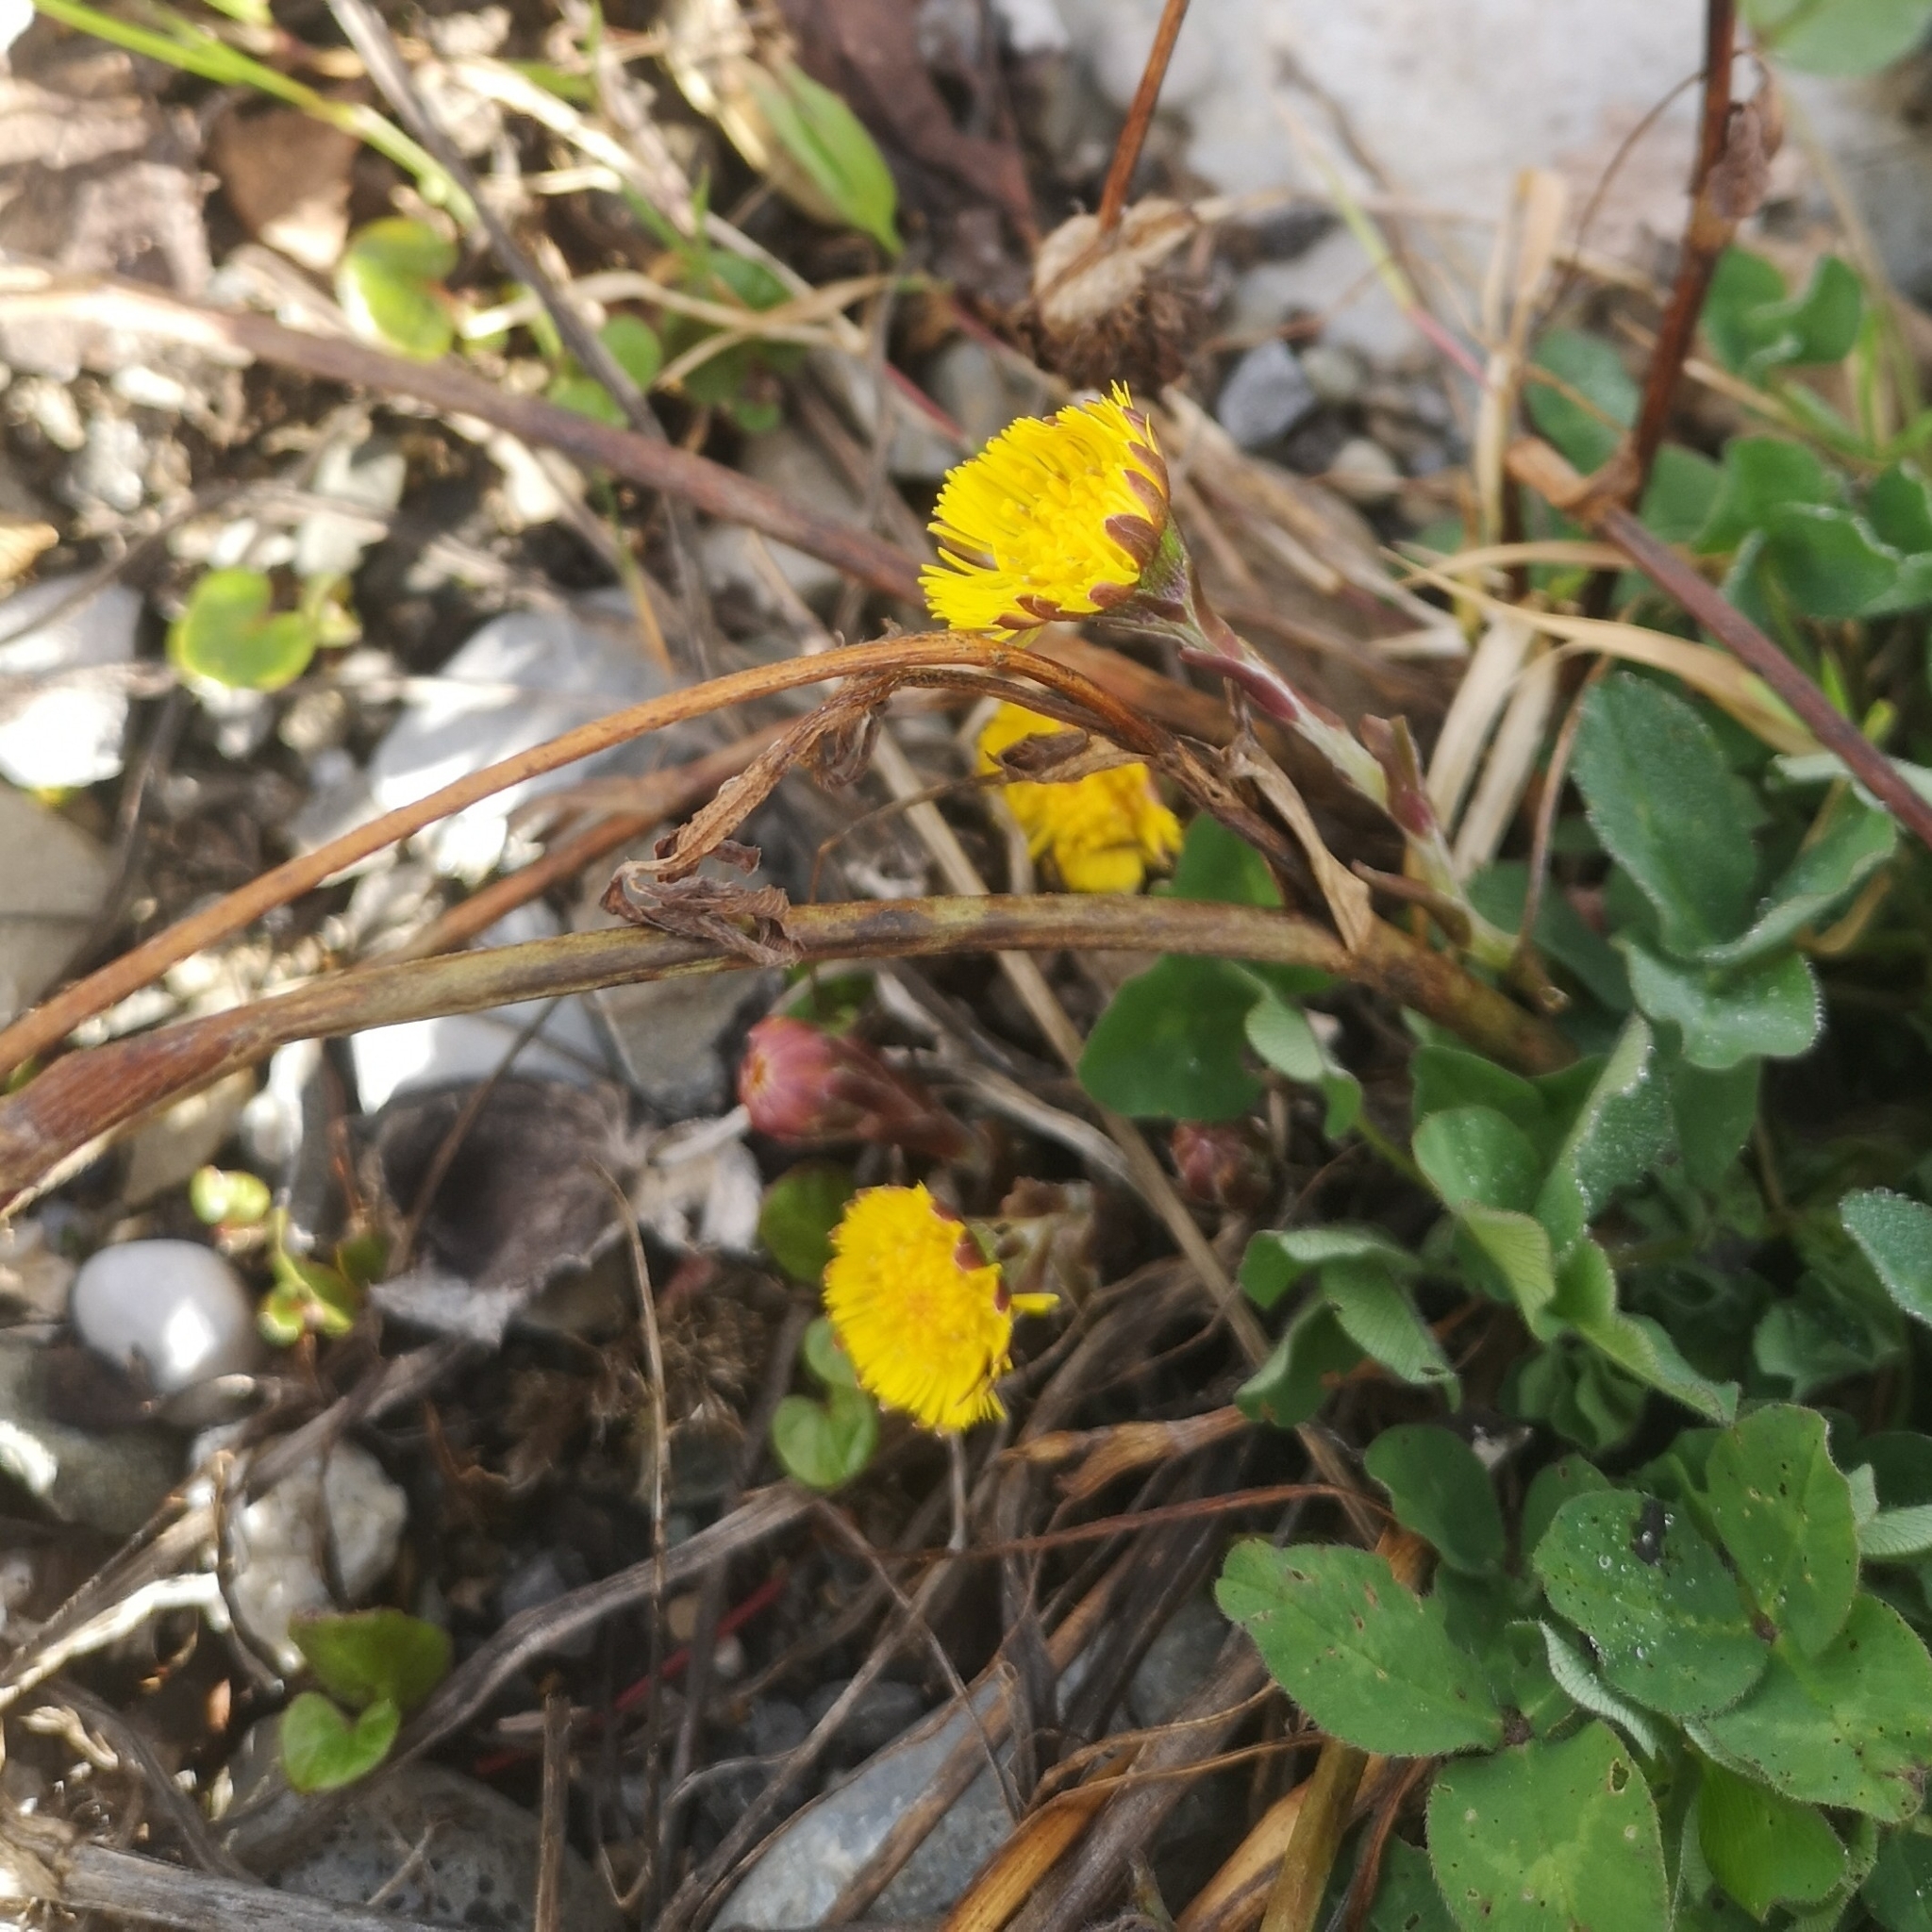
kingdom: Plantae
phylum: Tracheophyta
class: Magnoliopsida
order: Asterales
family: Asteraceae
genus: Tussilago
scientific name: Tussilago farfara
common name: Coltsfoot
